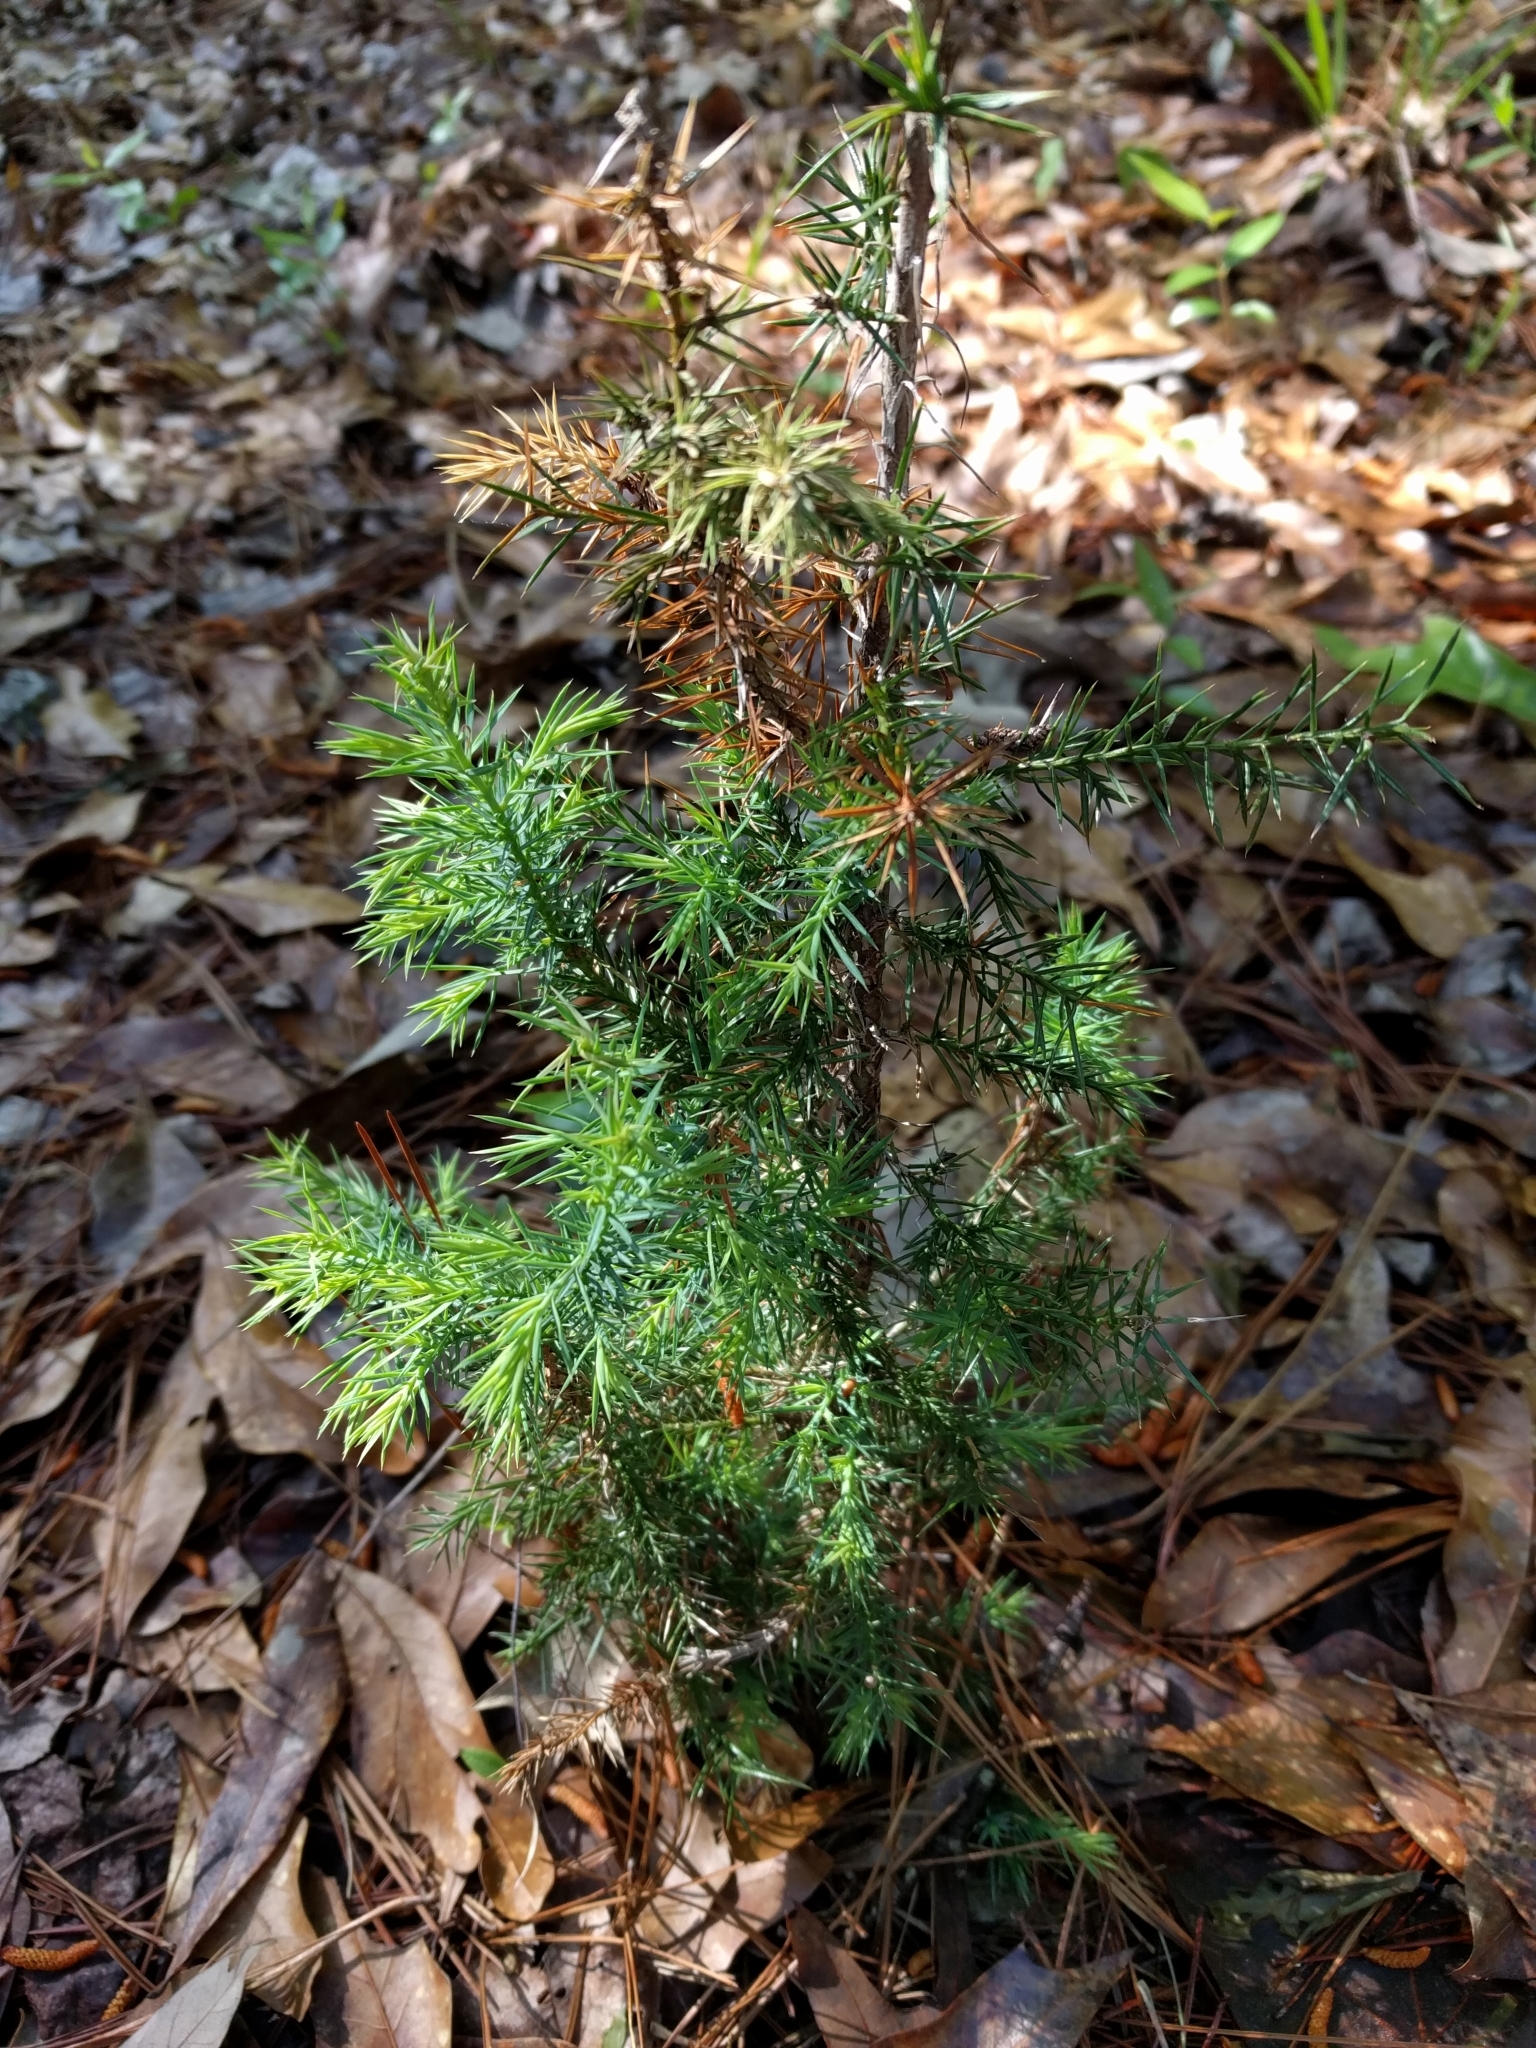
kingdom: Plantae
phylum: Tracheophyta
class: Pinopsida
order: Pinales
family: Cupressaceae
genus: Juniperus
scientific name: Juniperus virginiana
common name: Red juniper
